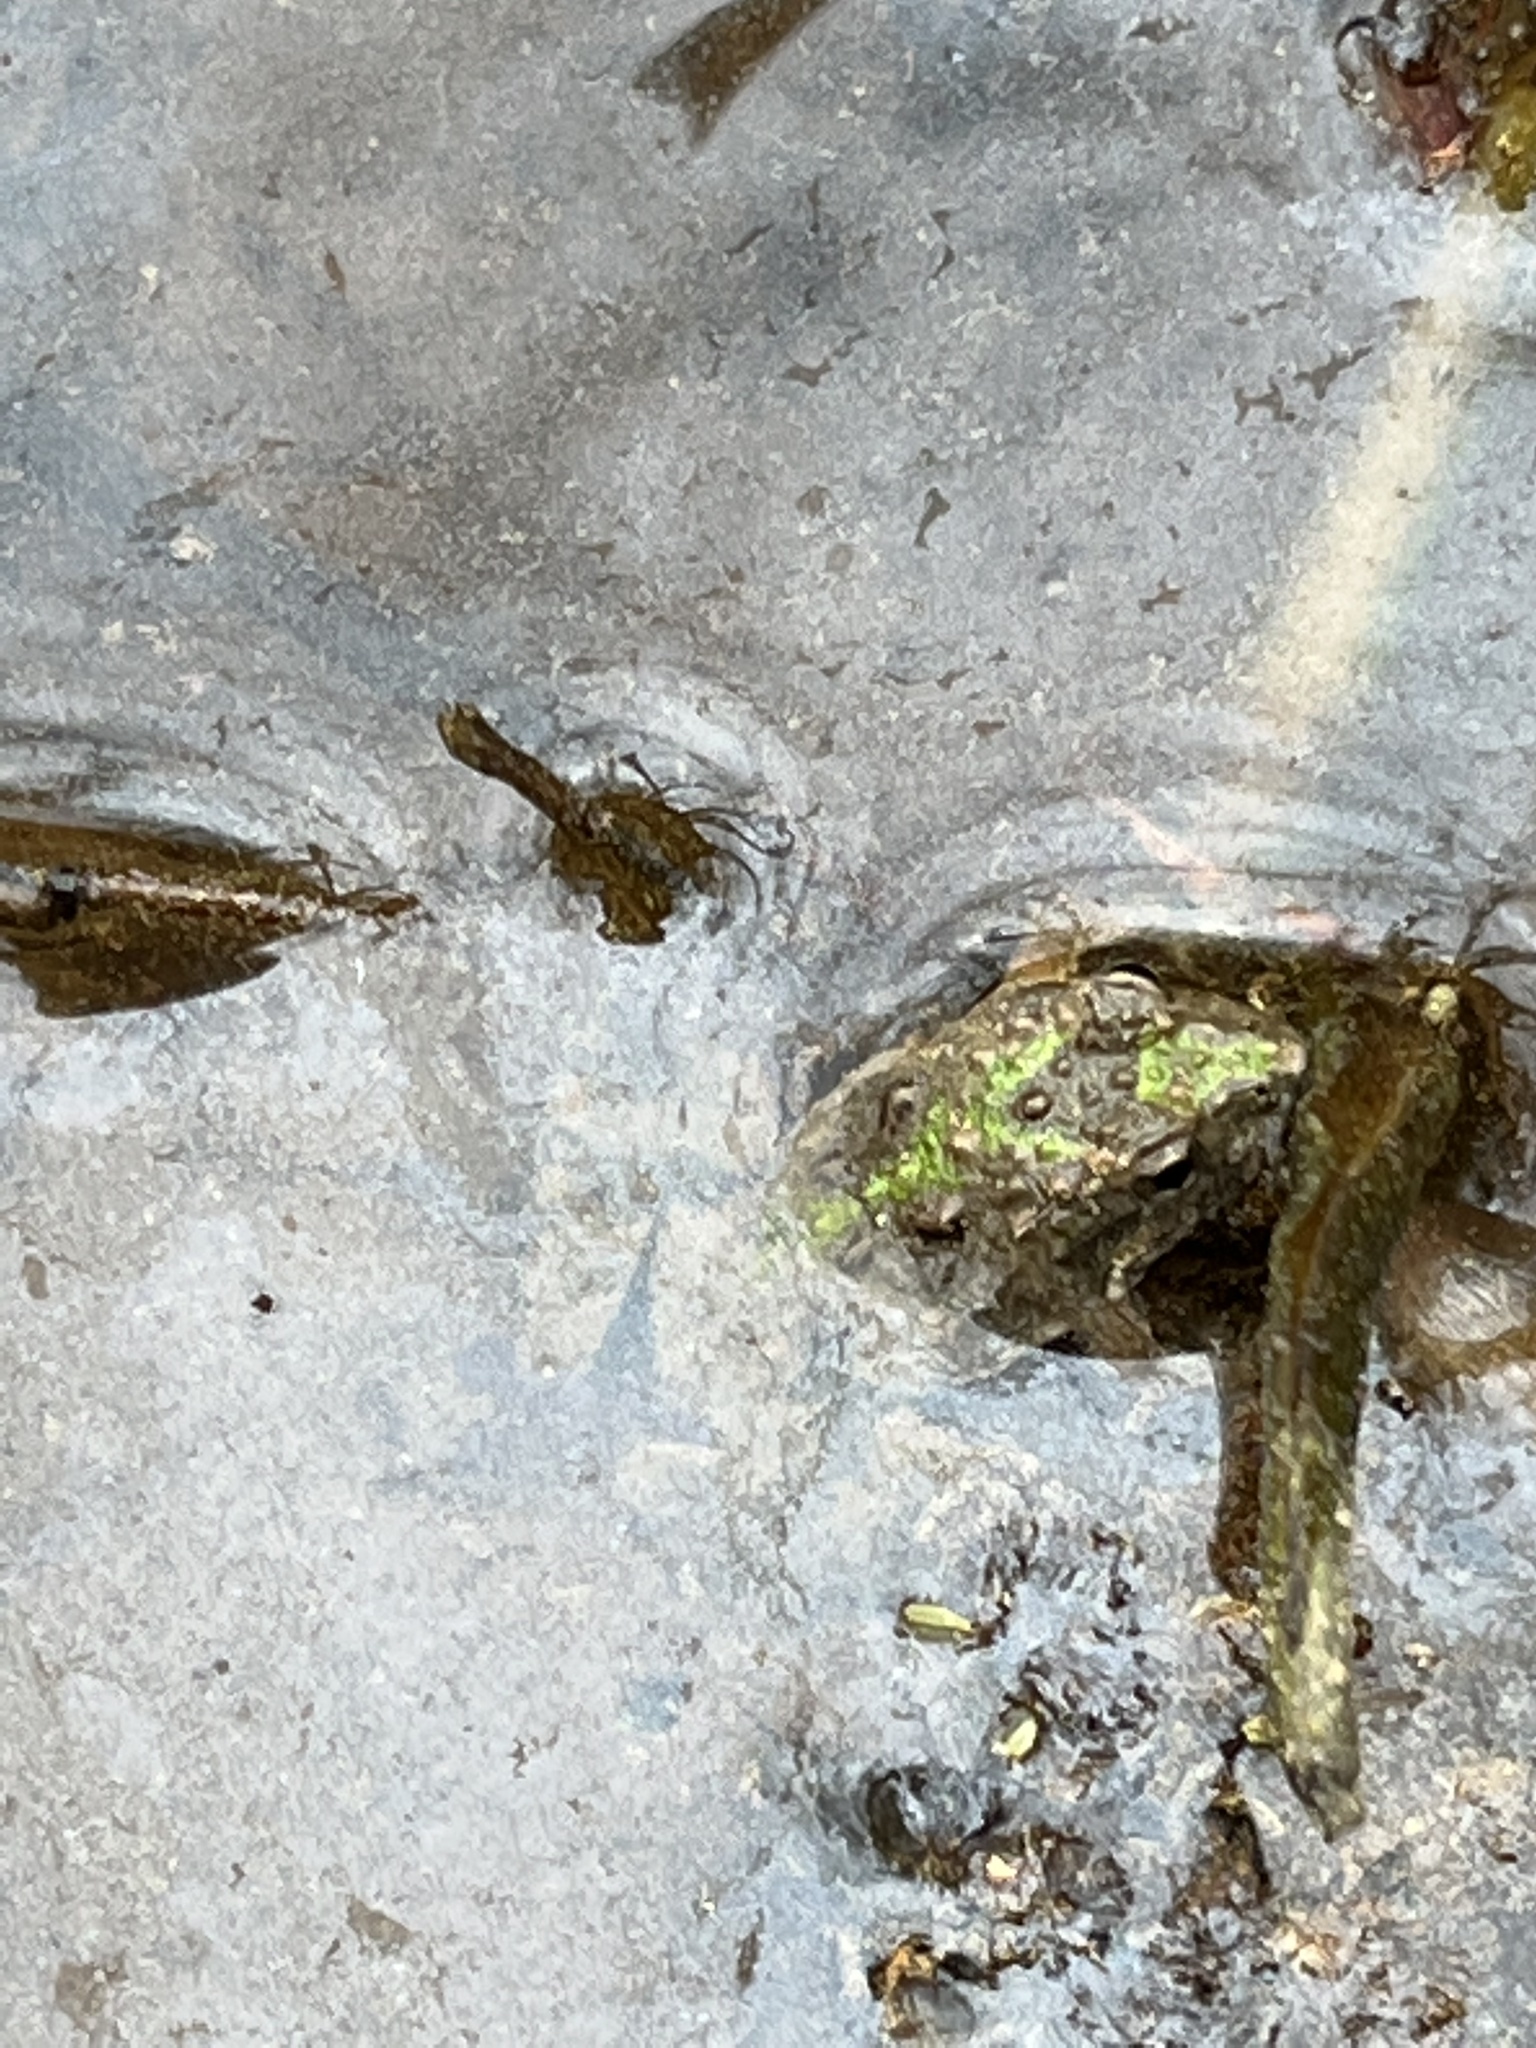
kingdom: Animalia
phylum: Chordata
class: Amphibia
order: Anura
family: Hylidae
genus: Acris
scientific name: Acris crepitans
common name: Northern cricket frog
